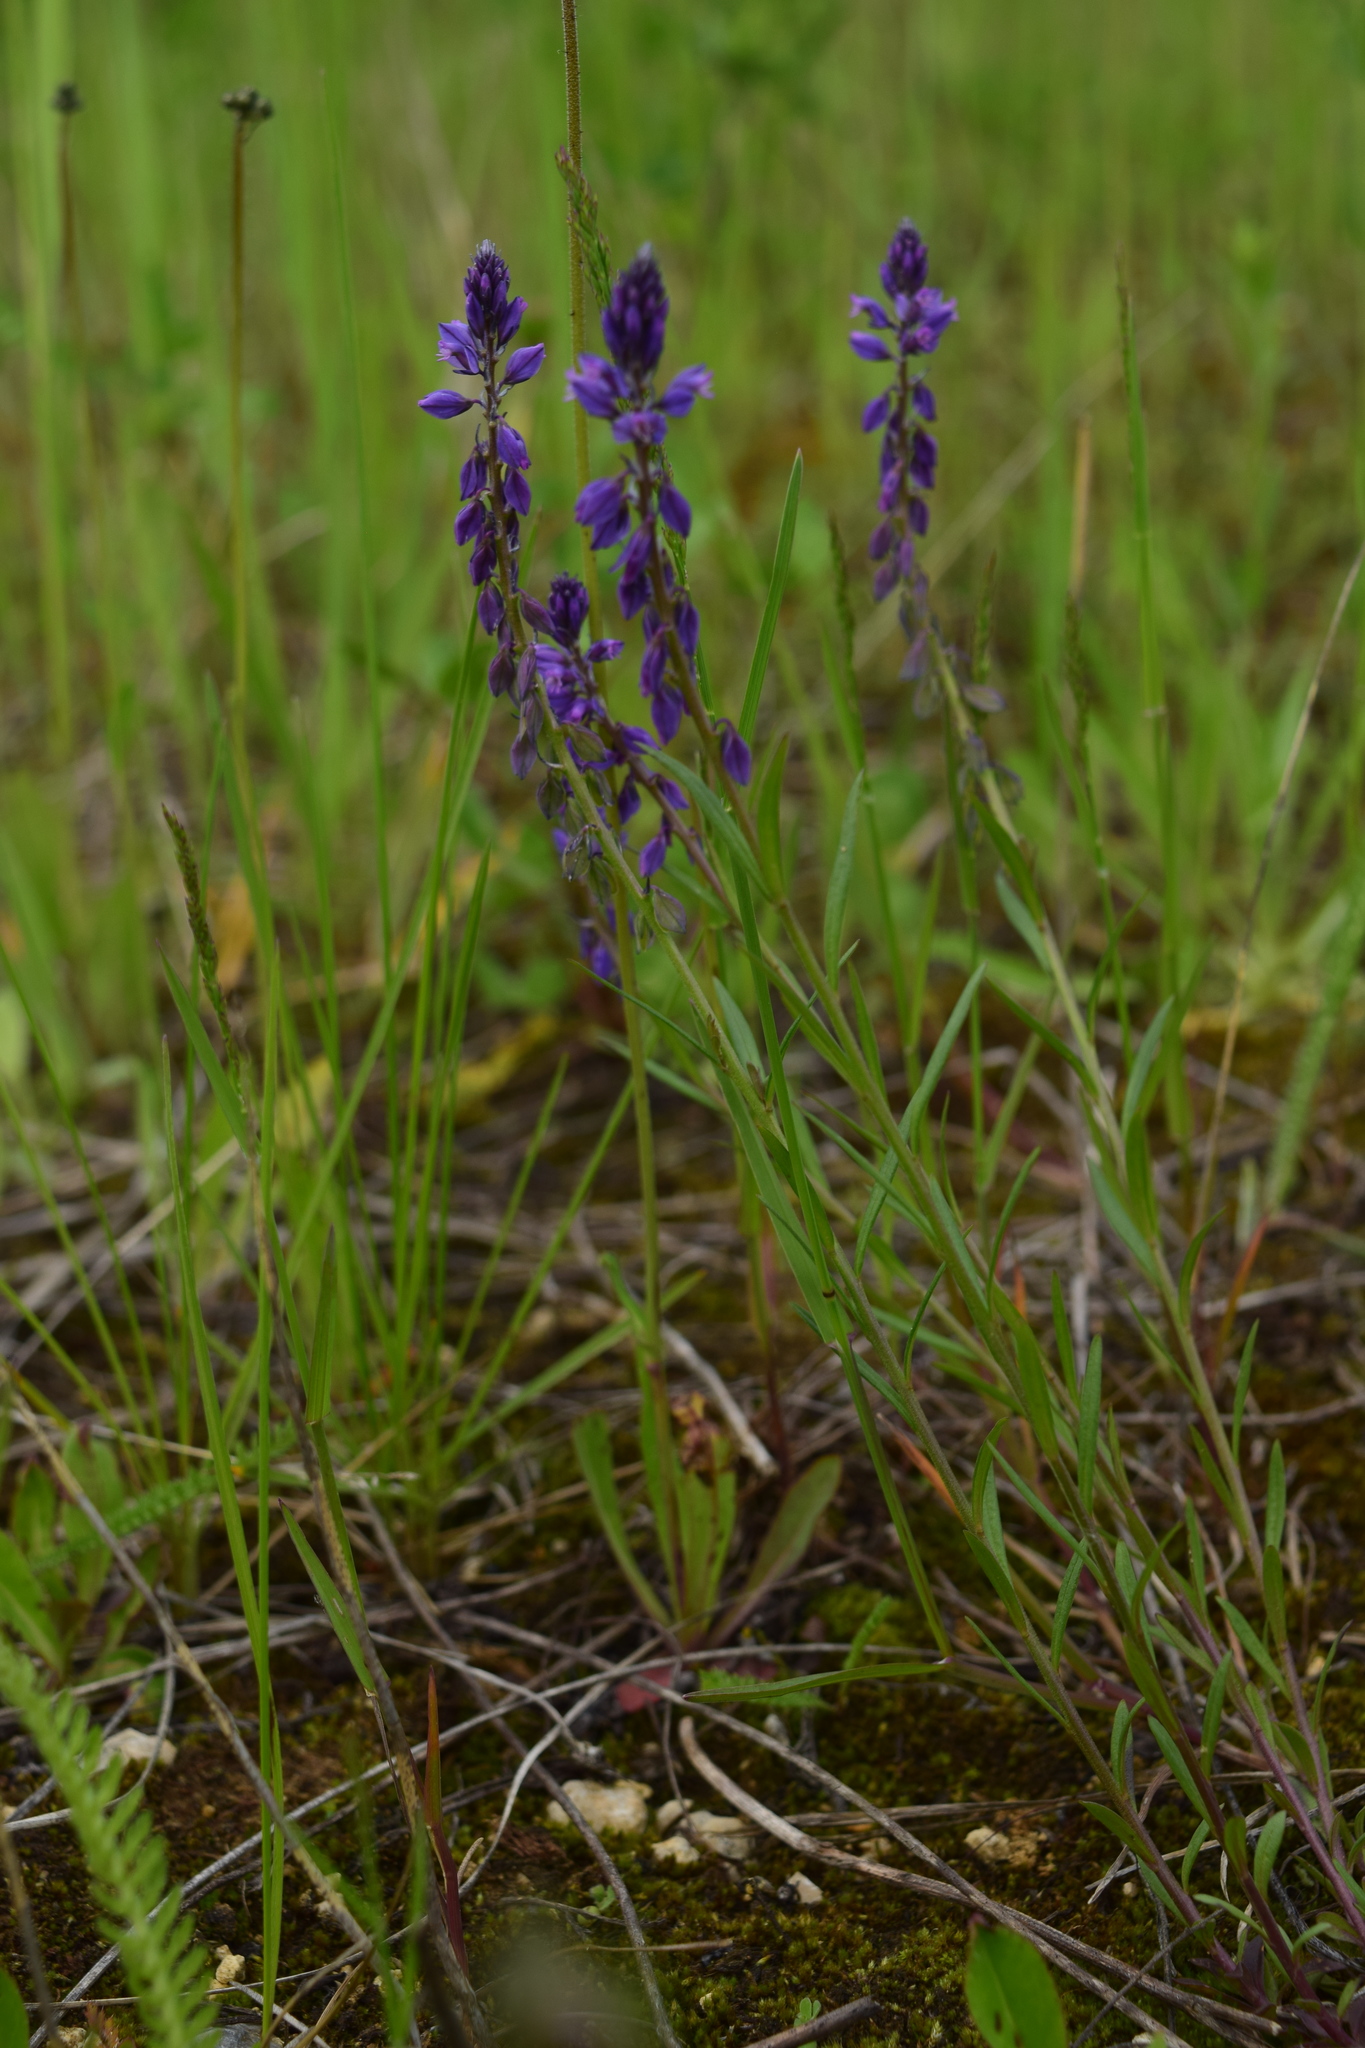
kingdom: Plantae
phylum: Tracheophyta
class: Magnoliopsida
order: Fabales
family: Polygalaceae
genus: Polygala
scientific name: Polygala comosa
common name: Tufted milkwort
